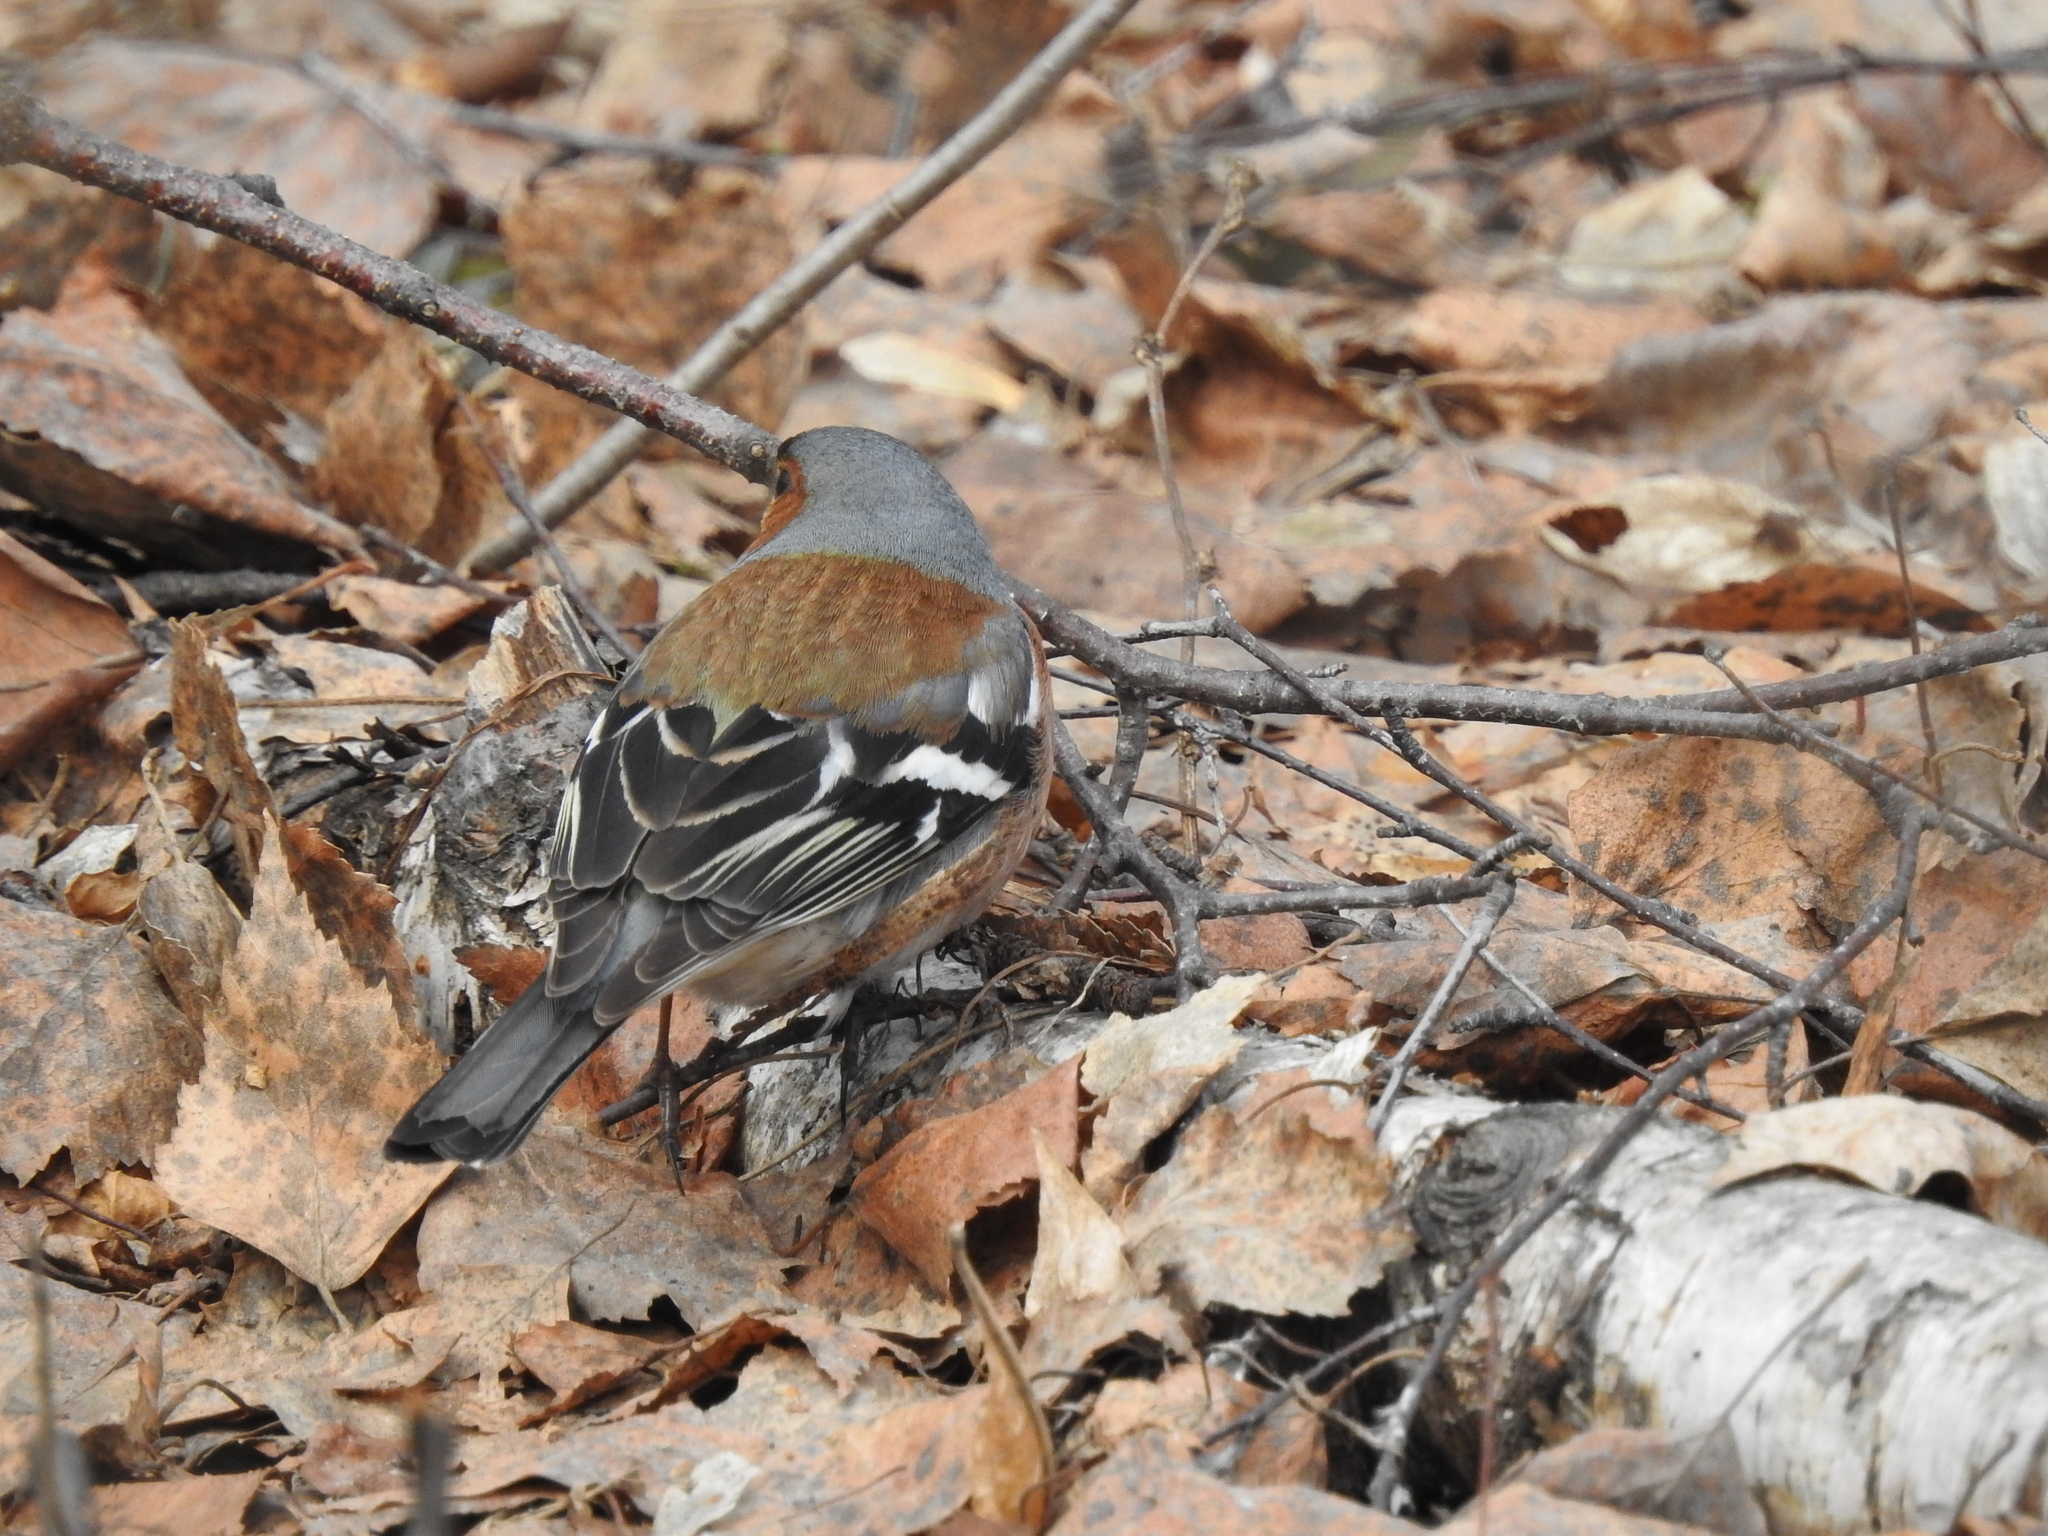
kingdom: Animalia
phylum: Chordata
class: Aves
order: Passeriformes
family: Fringillidae
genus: Fringilla
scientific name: Fringilla coelebs
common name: Common chaffinch
